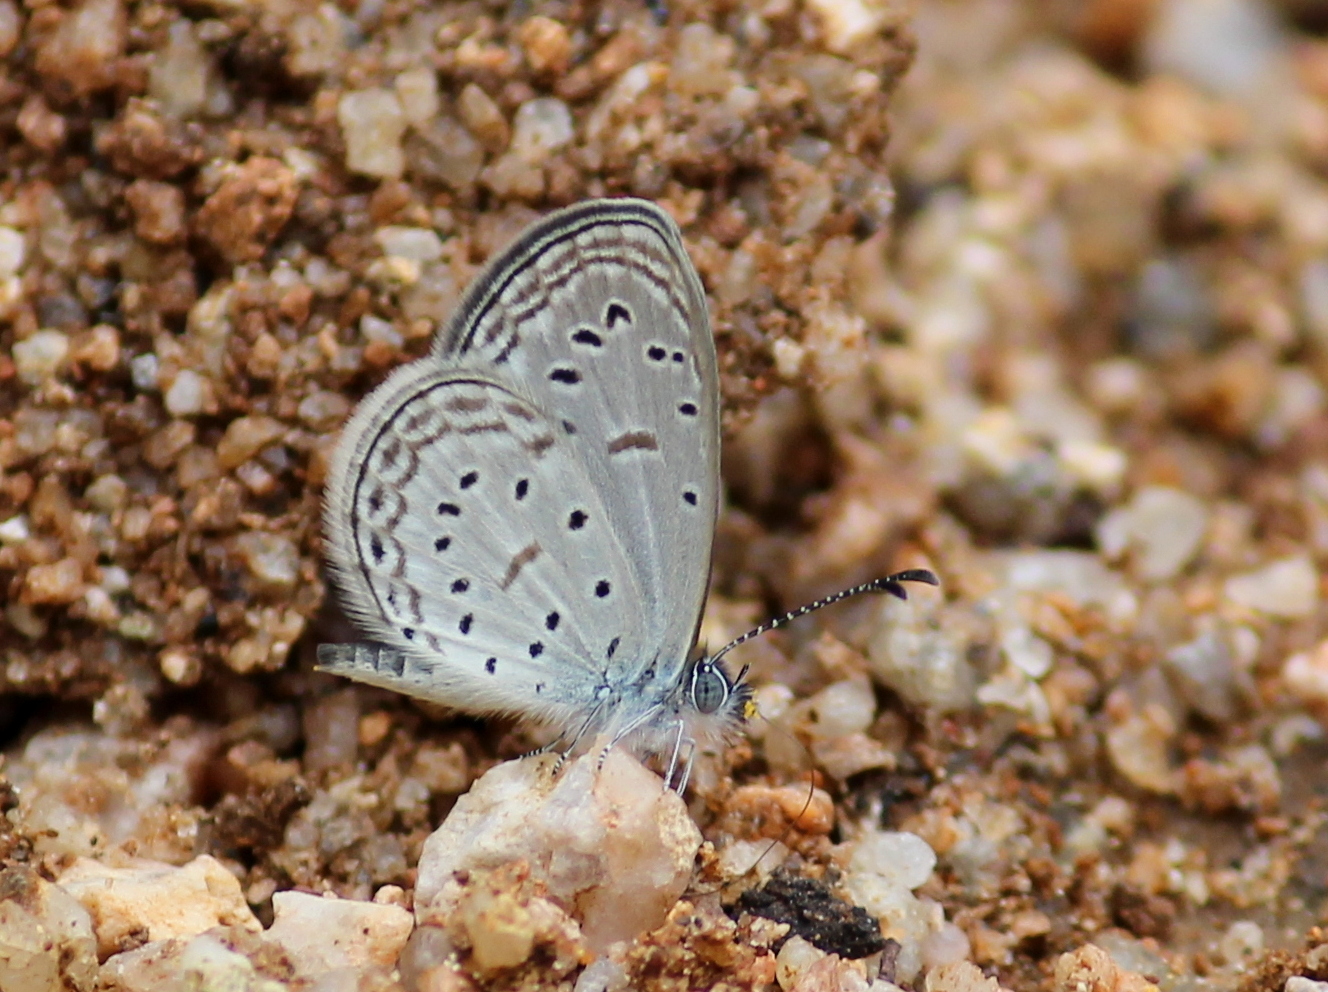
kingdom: Animalia
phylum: Arthropoda
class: Insecta
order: Lepidoptera
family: Lycaenidae
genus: Zizula
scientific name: Zizula hylax
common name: Gaika blue
